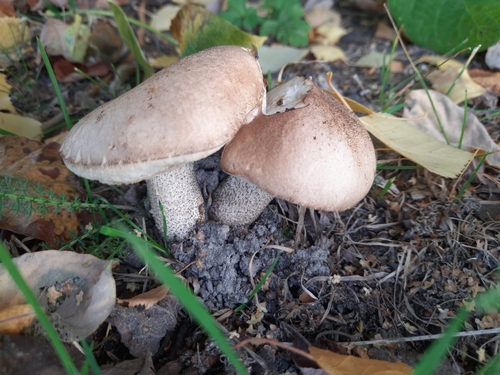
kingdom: Fungi
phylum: Basidiomycota
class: Agaricomycetes
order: Boletales
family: Boletaceae
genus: Leccinum
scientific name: Leccinum scabrum
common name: Blushing bolete
